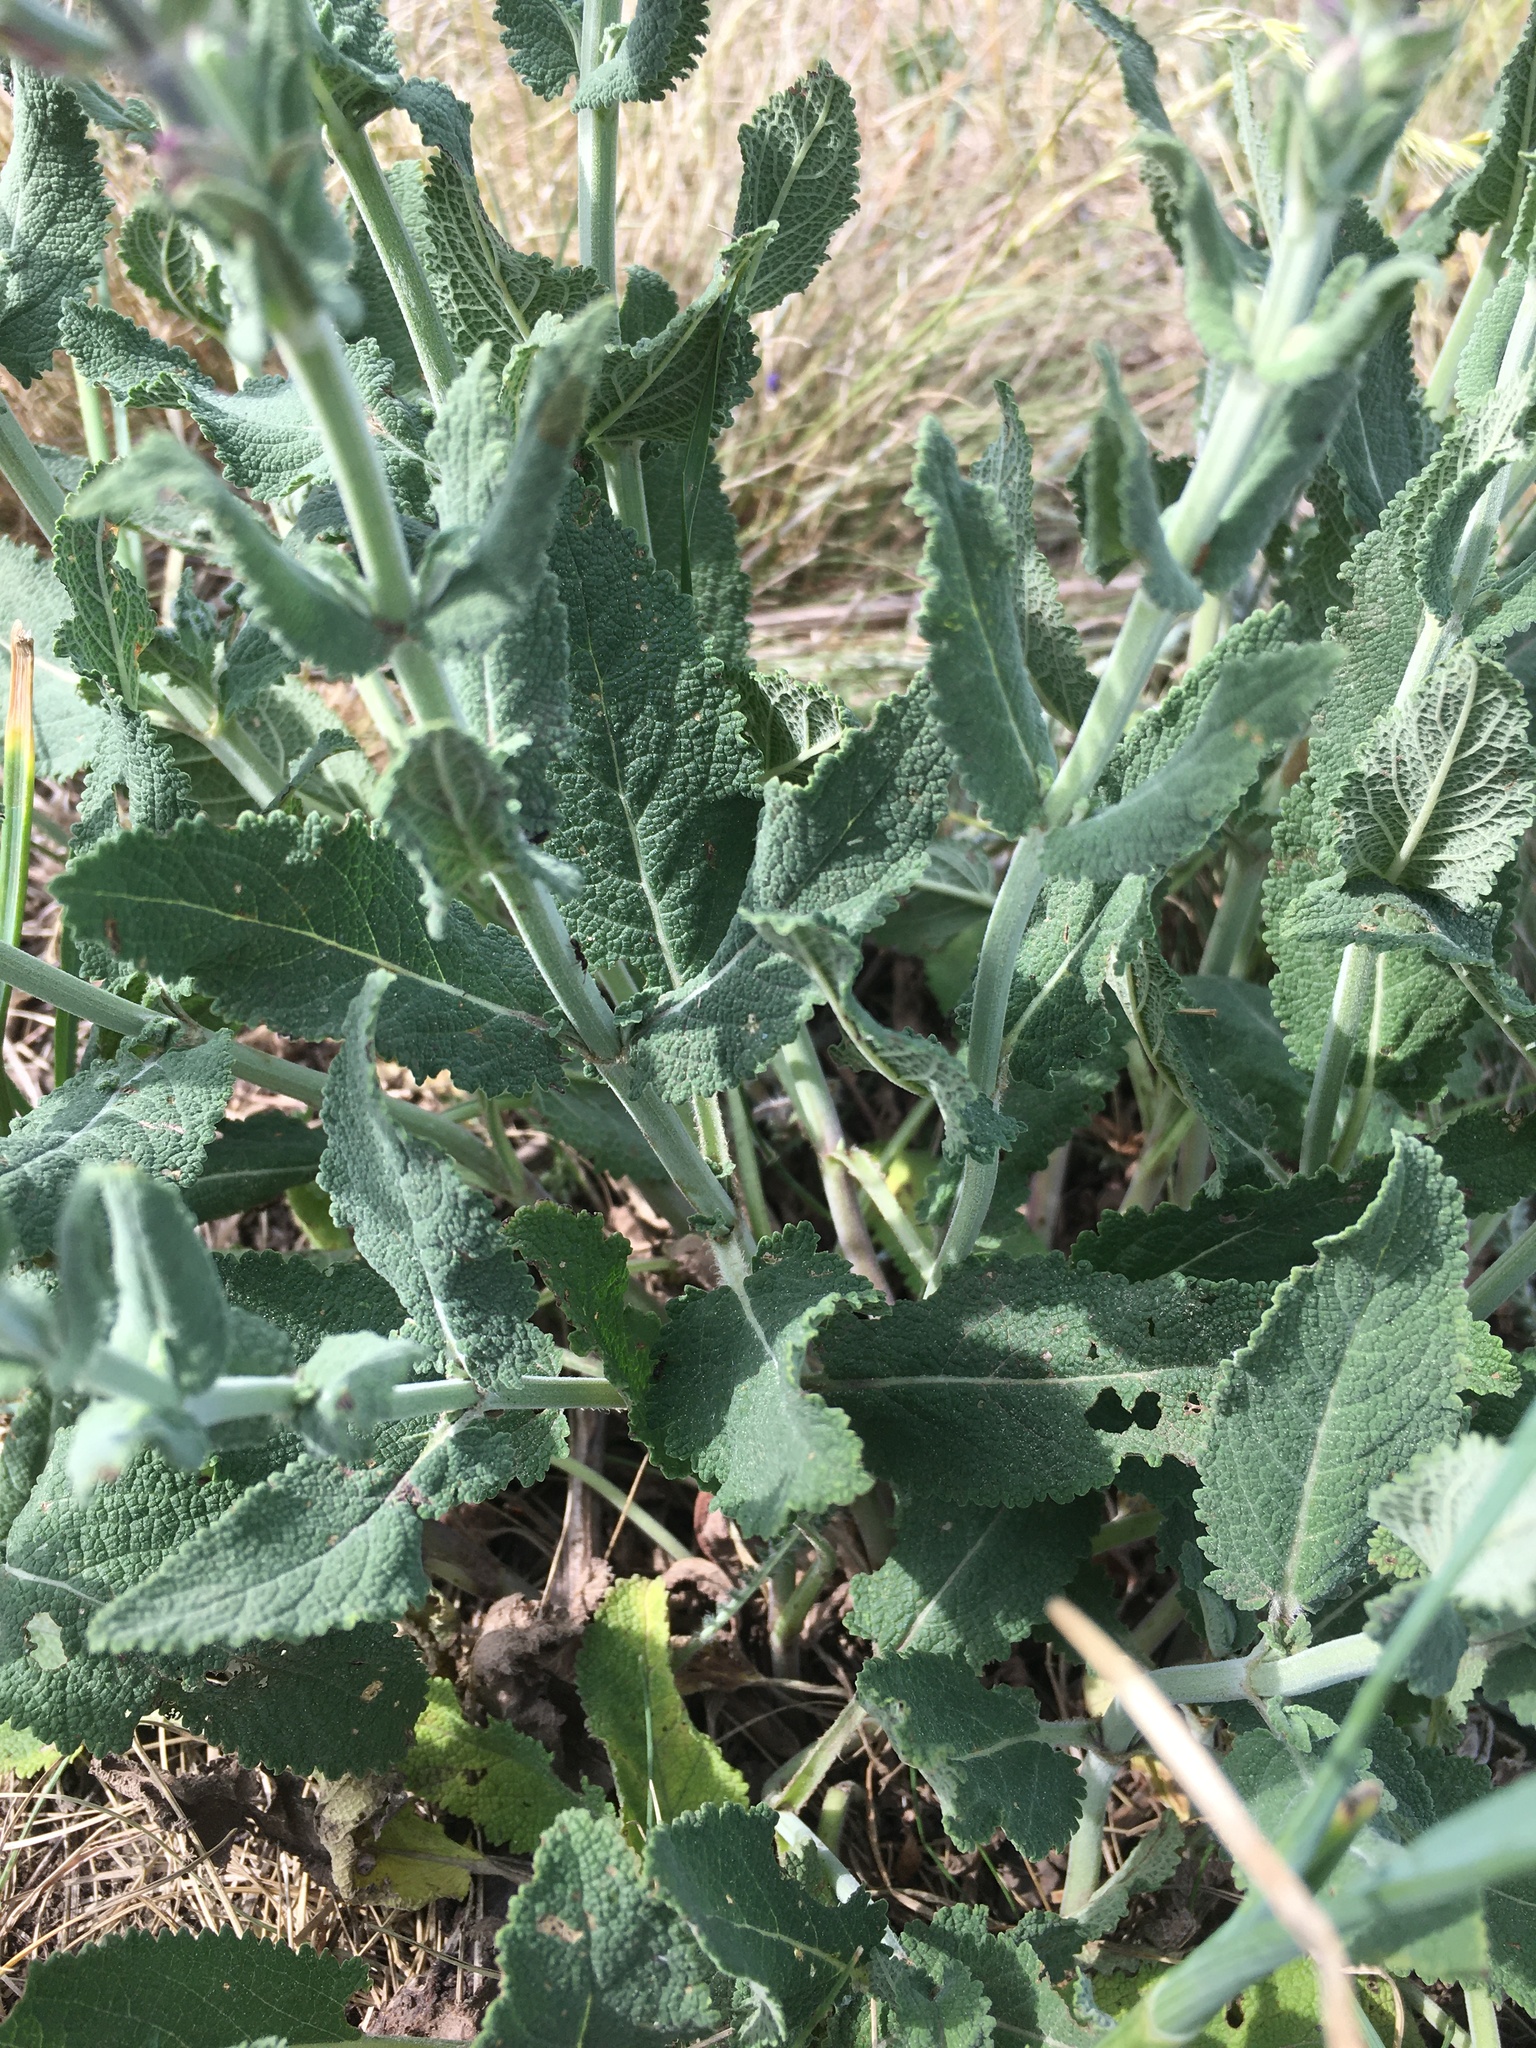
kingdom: Plantae
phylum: Tracheophyta
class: Magnoliopsida
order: Lamiales
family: Lamiaceae
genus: Salvia
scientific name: Salvia nemorosa
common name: Balkan clary
